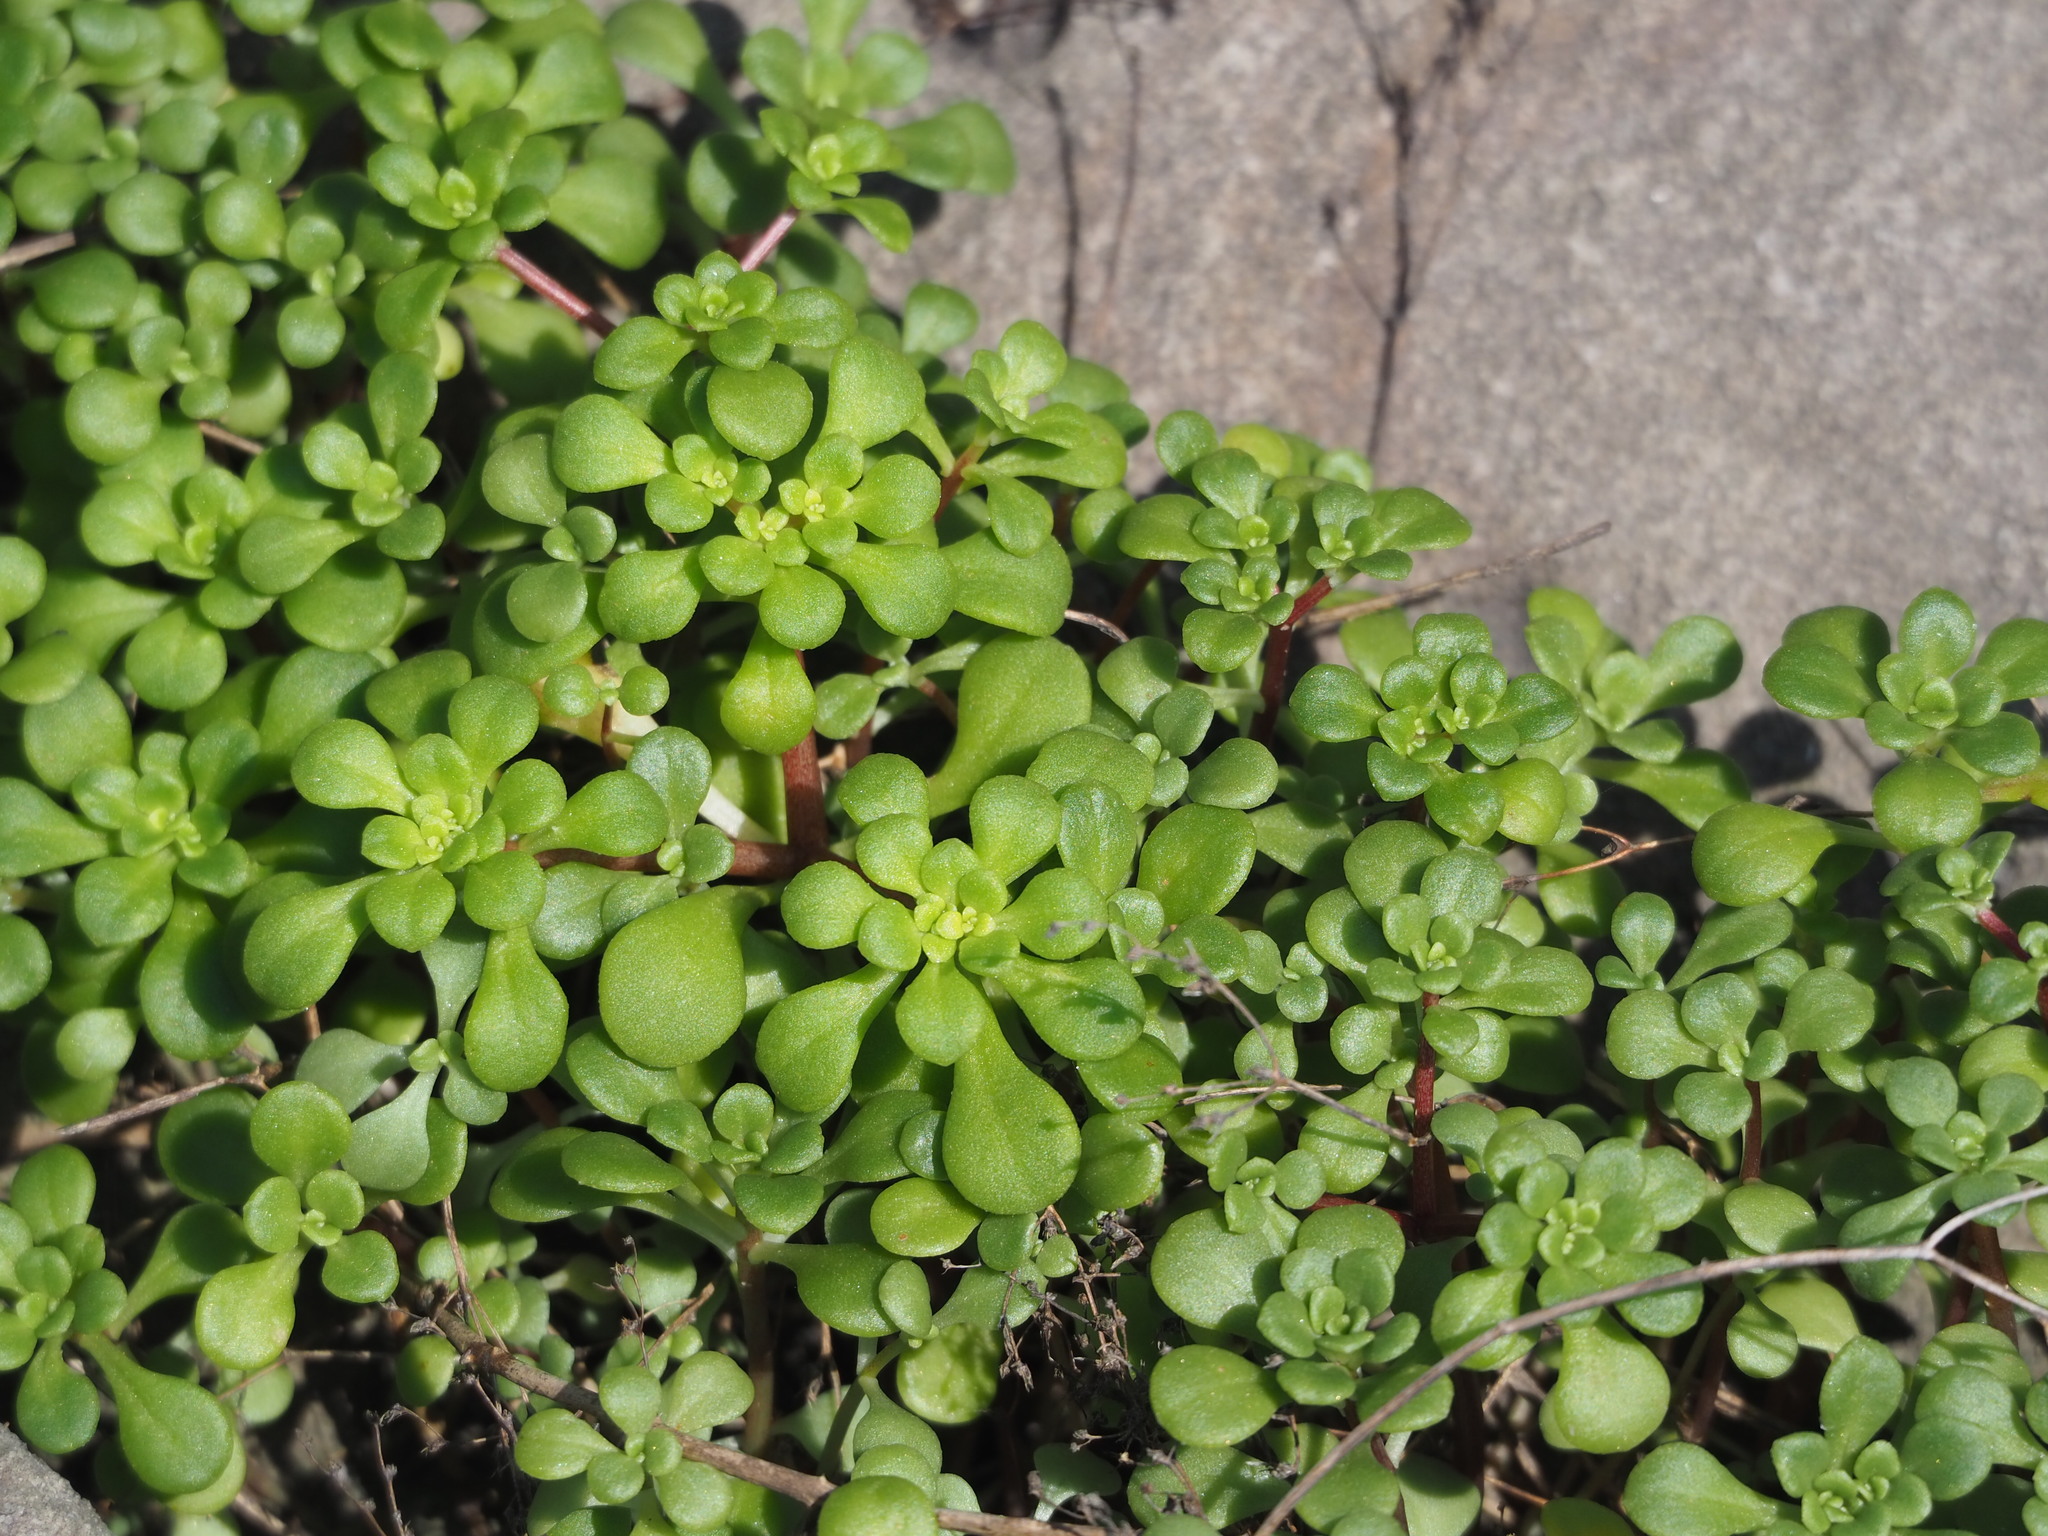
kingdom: Plantae
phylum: Tracheophyta
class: Magnoliopsida
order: Saxifragales
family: Crassulaceae
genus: Sedum
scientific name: Sedum formosanum
